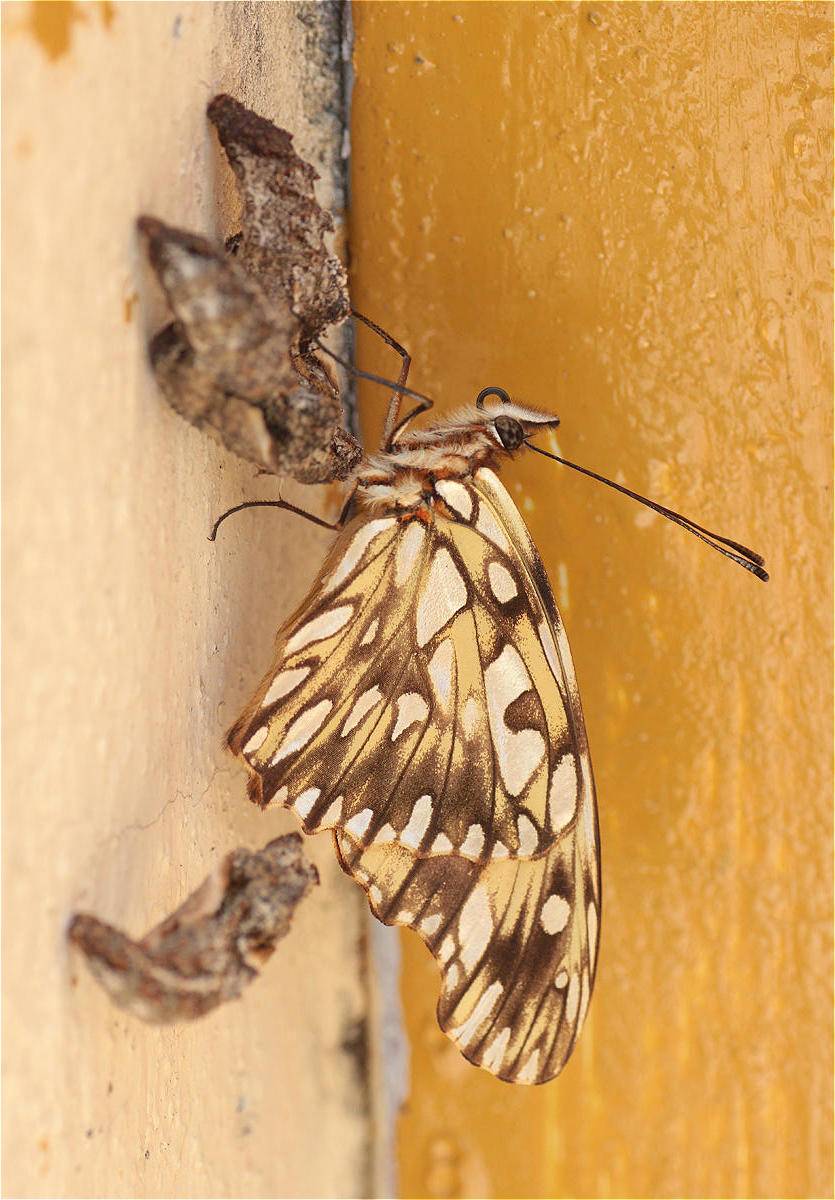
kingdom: Animalia
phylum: Arthropoda
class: Insecta
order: Lepidoptera
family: Nymphalidae
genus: Dione
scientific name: Dione juno
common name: Juno silverspot
